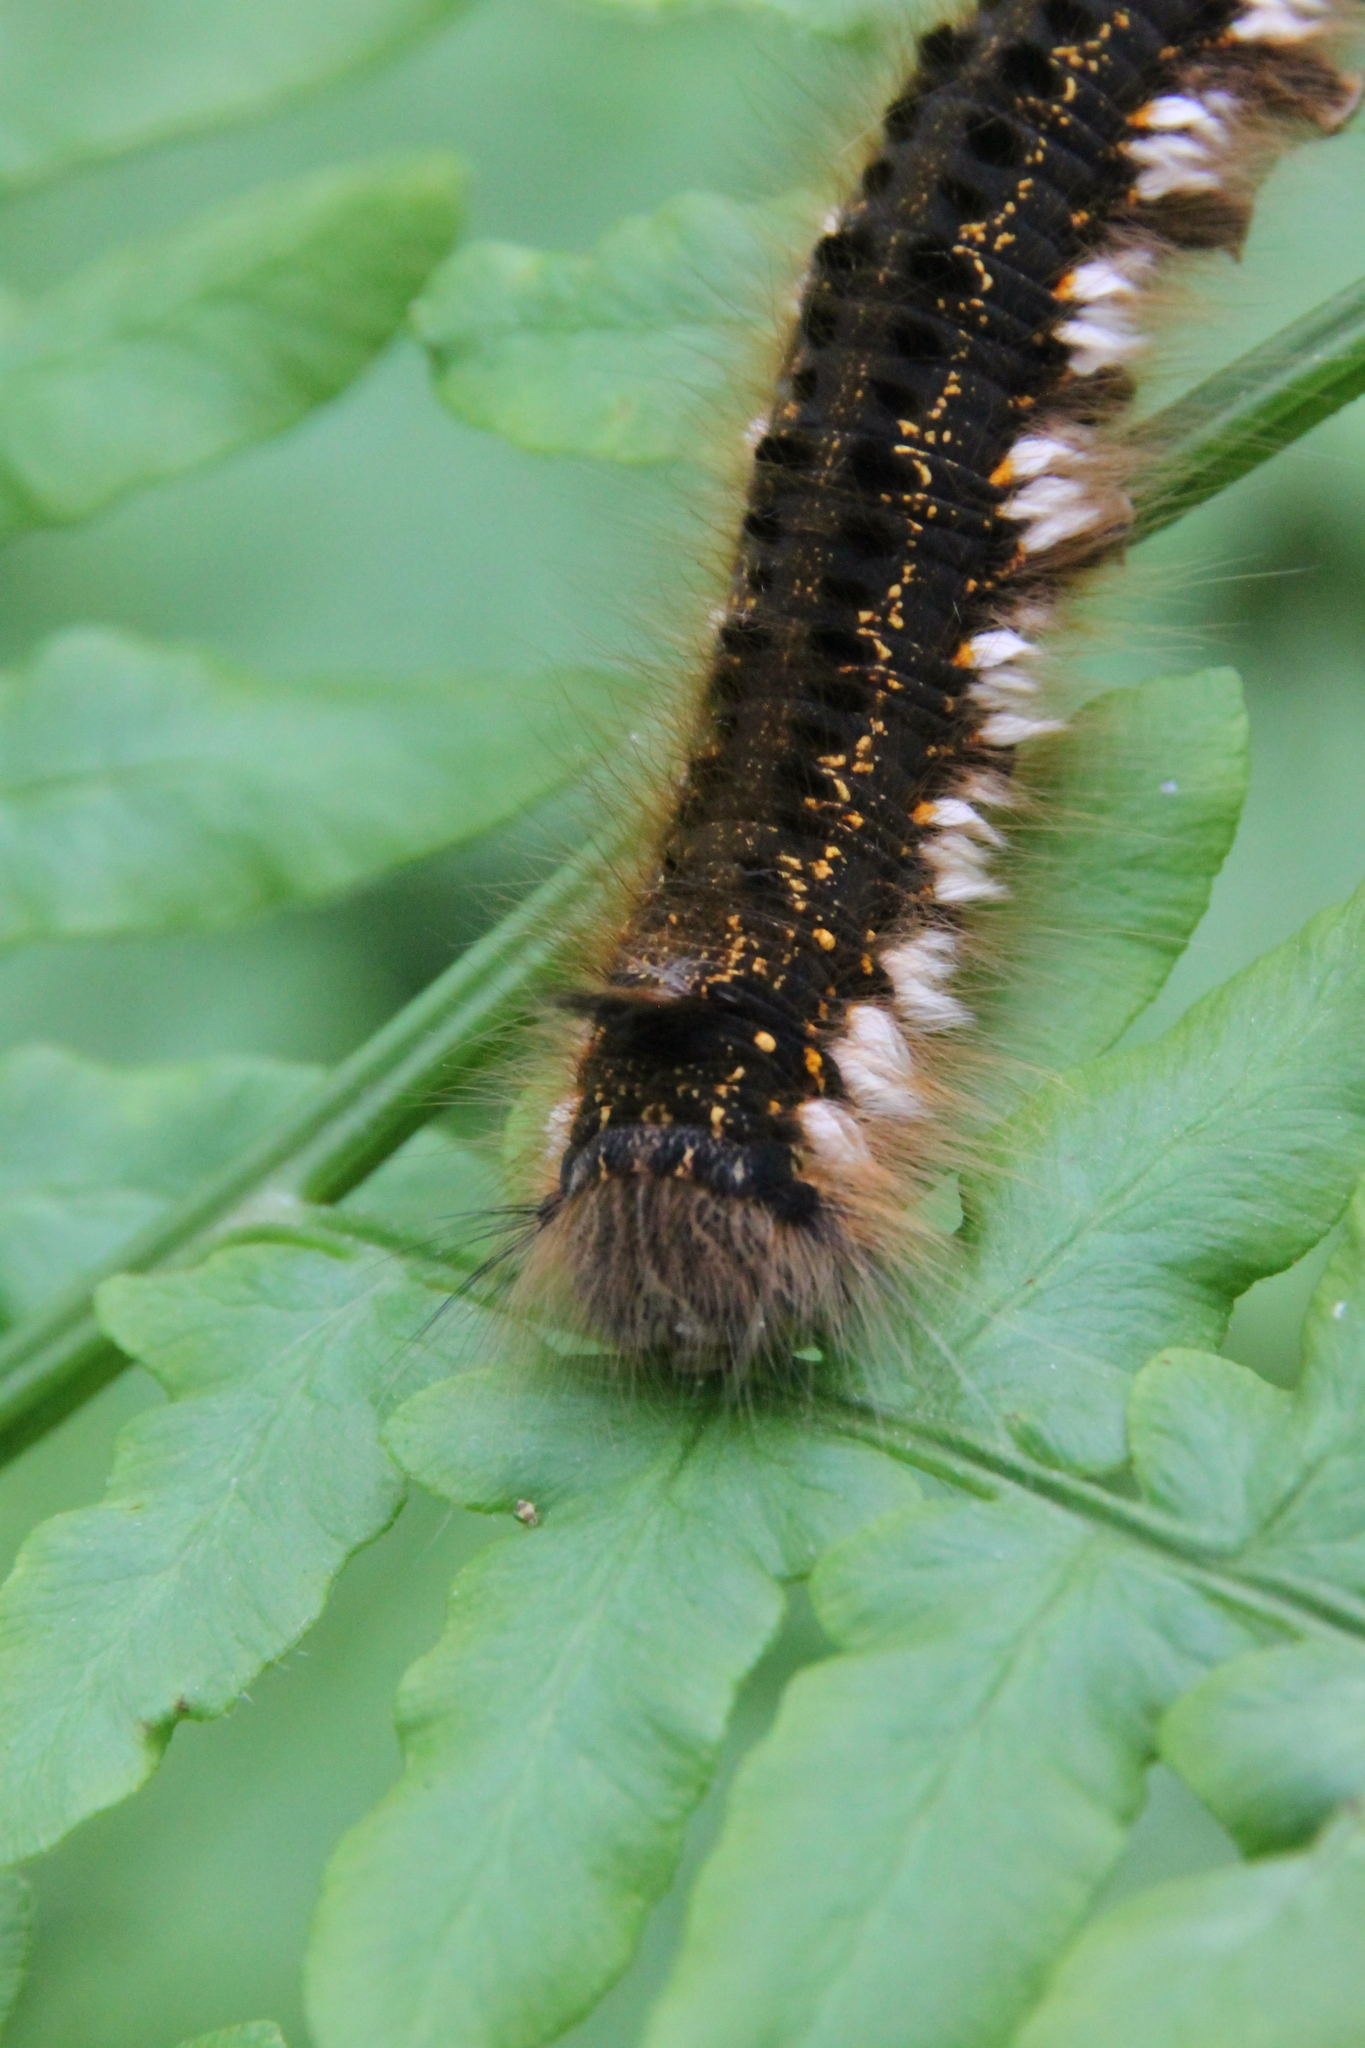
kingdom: Animalia
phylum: Arthropoda
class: Insecta
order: Lepidoptera
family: Lasiocampidae
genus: Euthrix
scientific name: Euthrix potatoria
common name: Drinker
